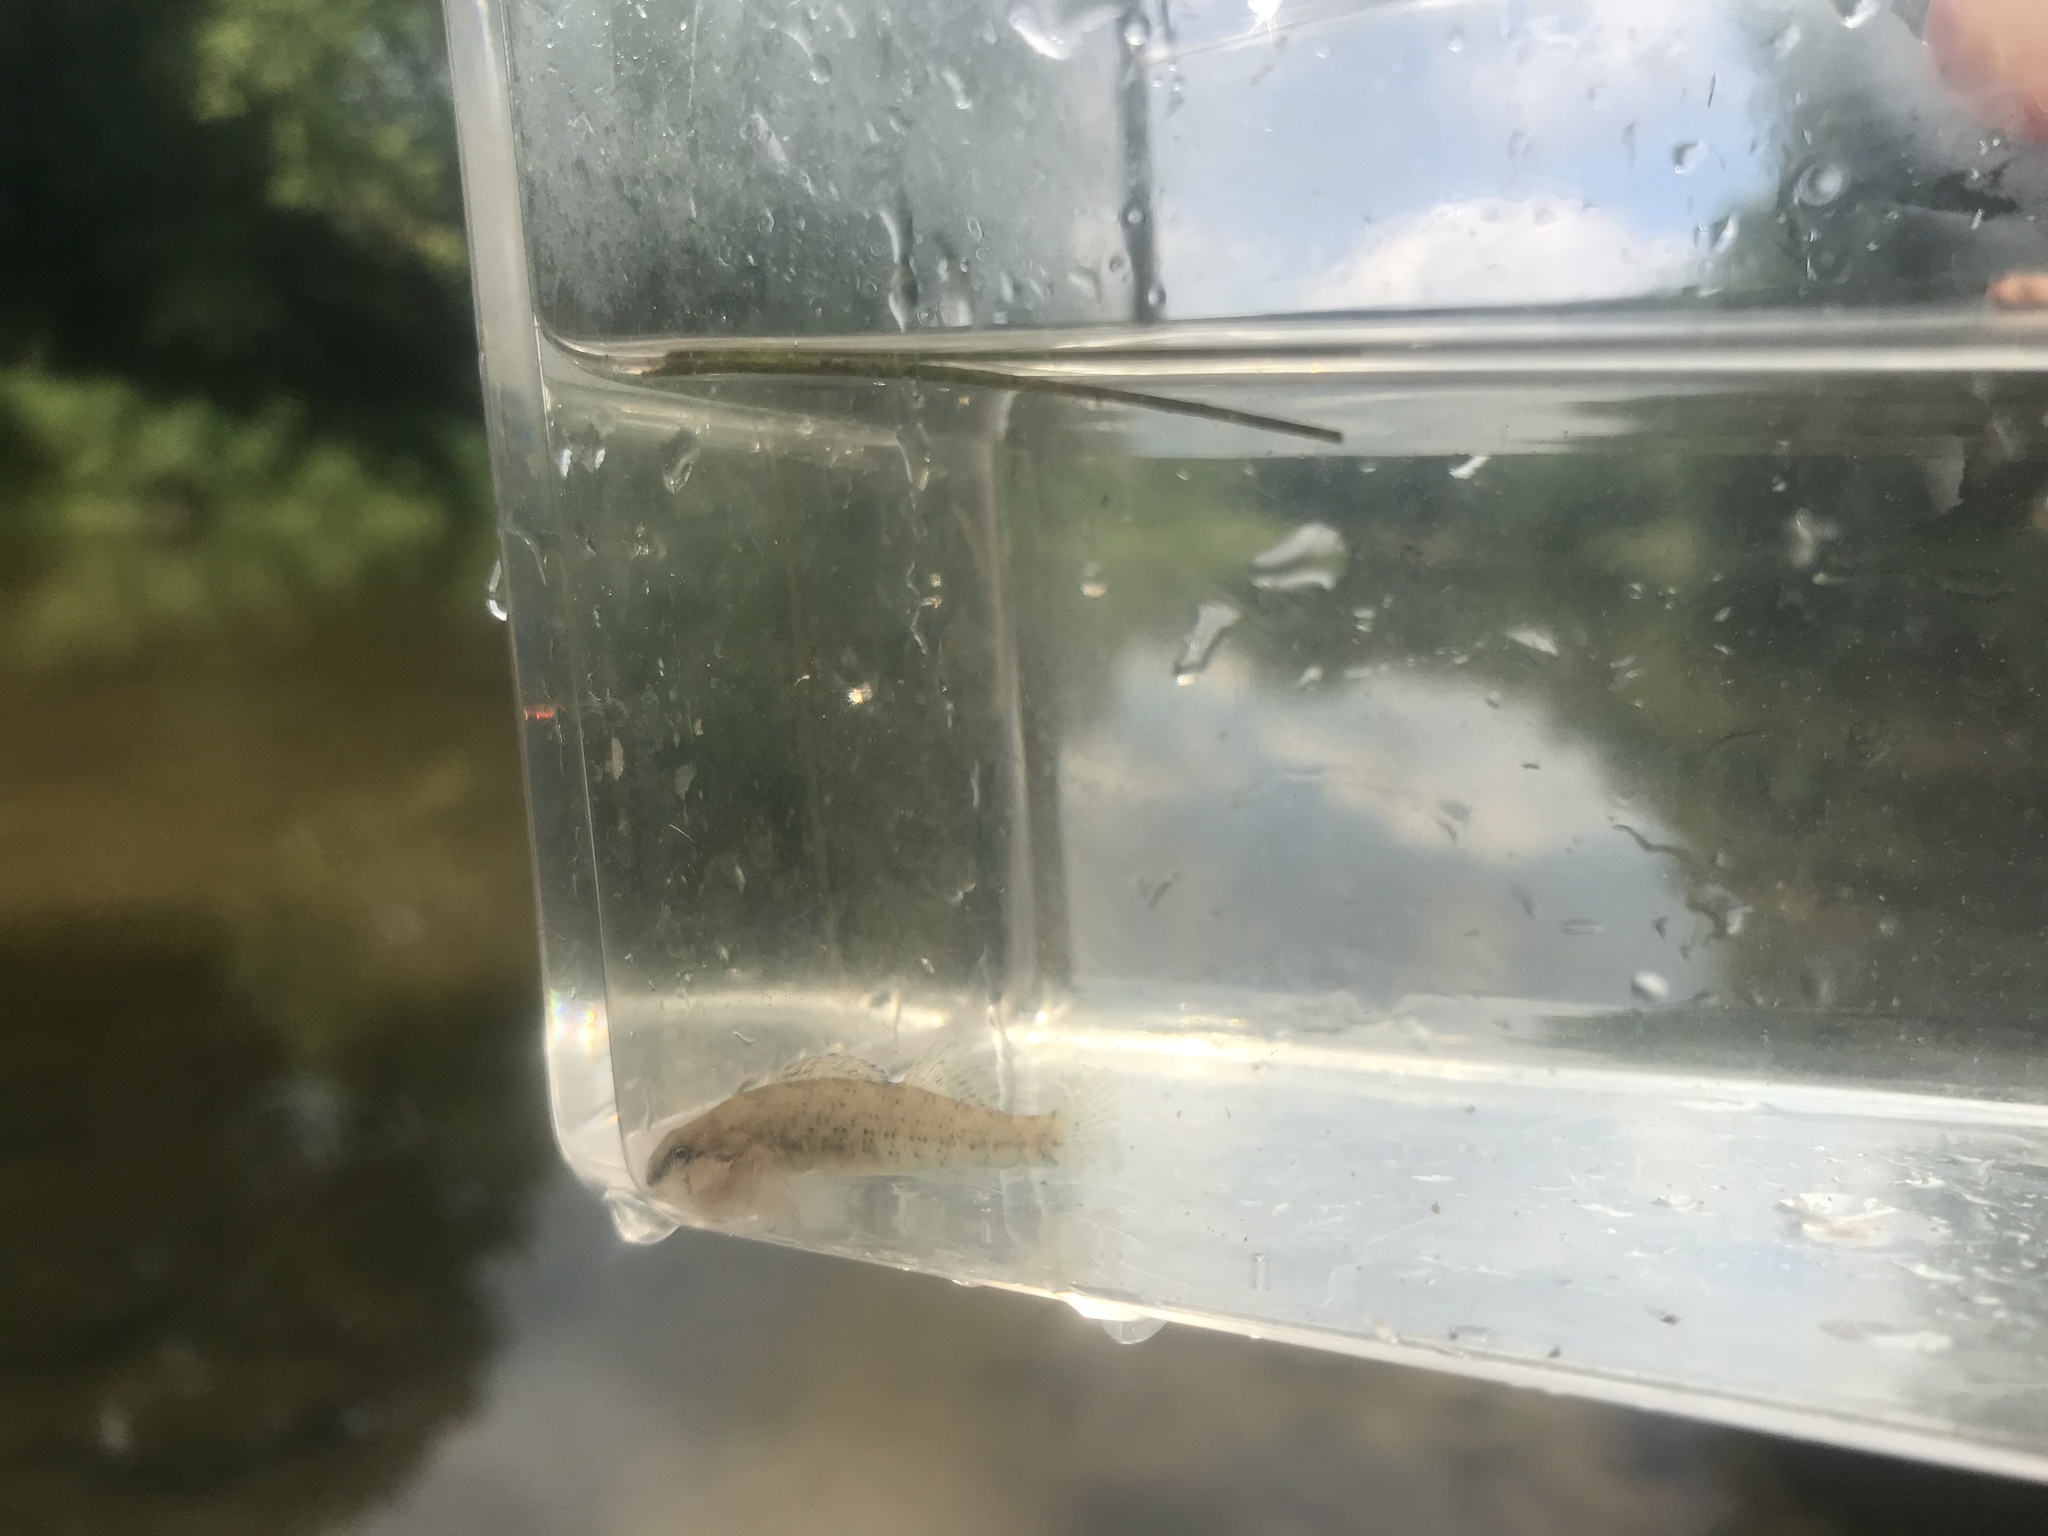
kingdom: Animalia
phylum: Chordata
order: Perciformes
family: Percidae
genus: Etheostoma
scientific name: Etheostoma caeruleum
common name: Rainbow darter
